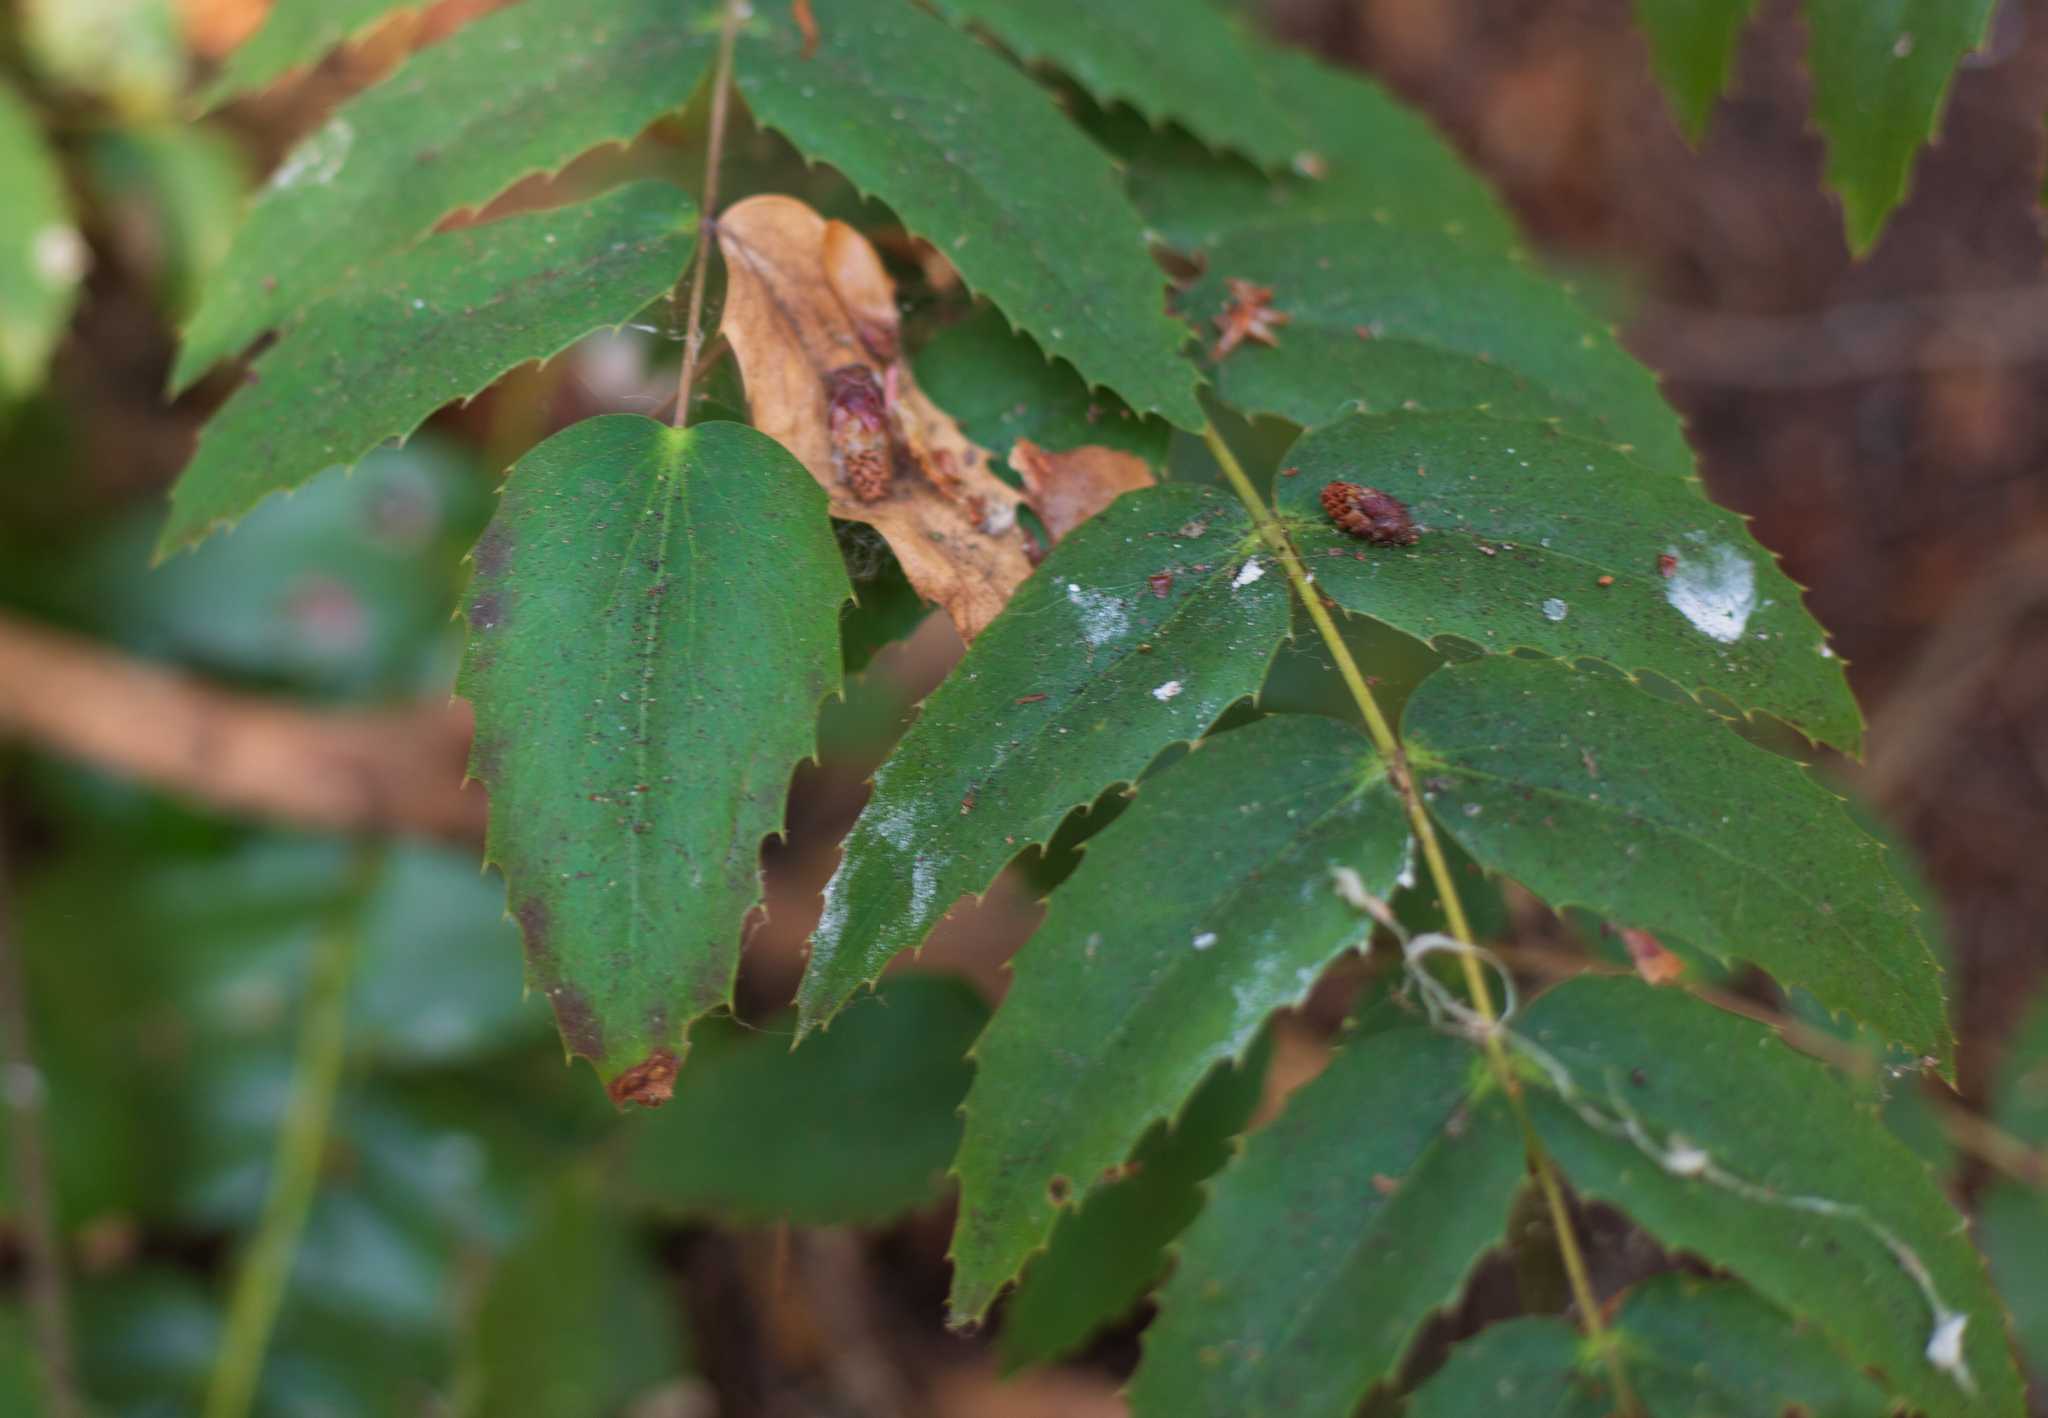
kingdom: Plantae
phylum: Tracheophyta
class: Magnoliopsida
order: Ranunculales
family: Berberidaceae
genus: Mahonia
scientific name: Mahonia nervosa
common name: Cascade oregon-grape
